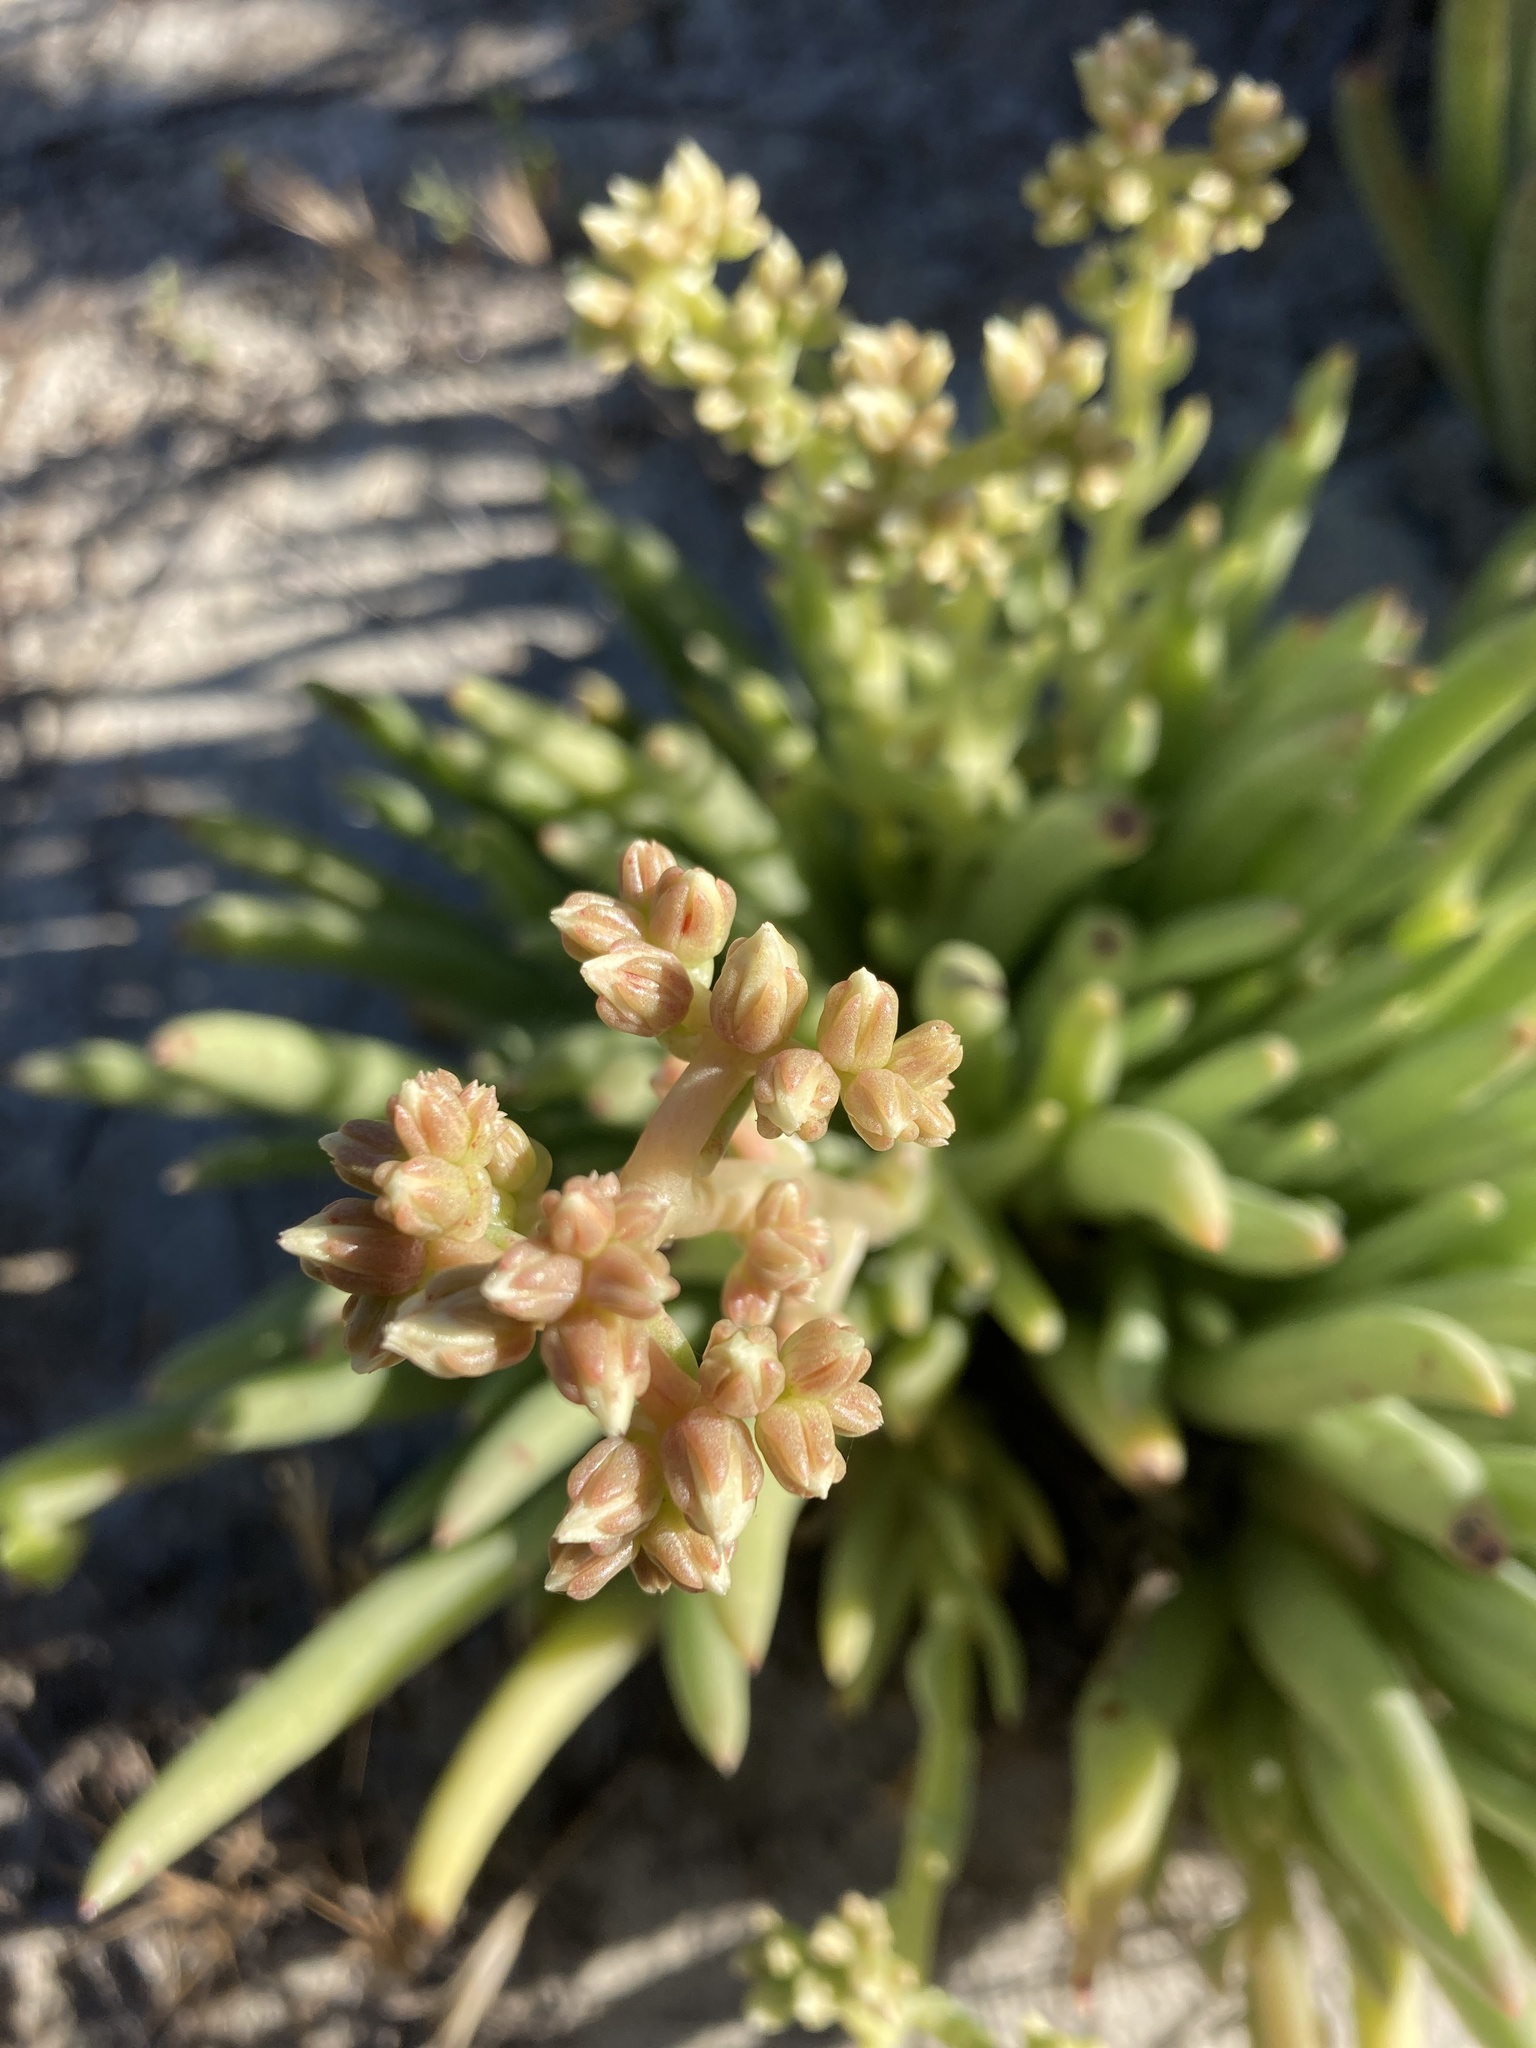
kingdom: Plantae
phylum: Tracheophyta
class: Magnoliopsida
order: Saxifragales
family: Crassulaceae
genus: Dudleya
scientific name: Dudleya edulis
